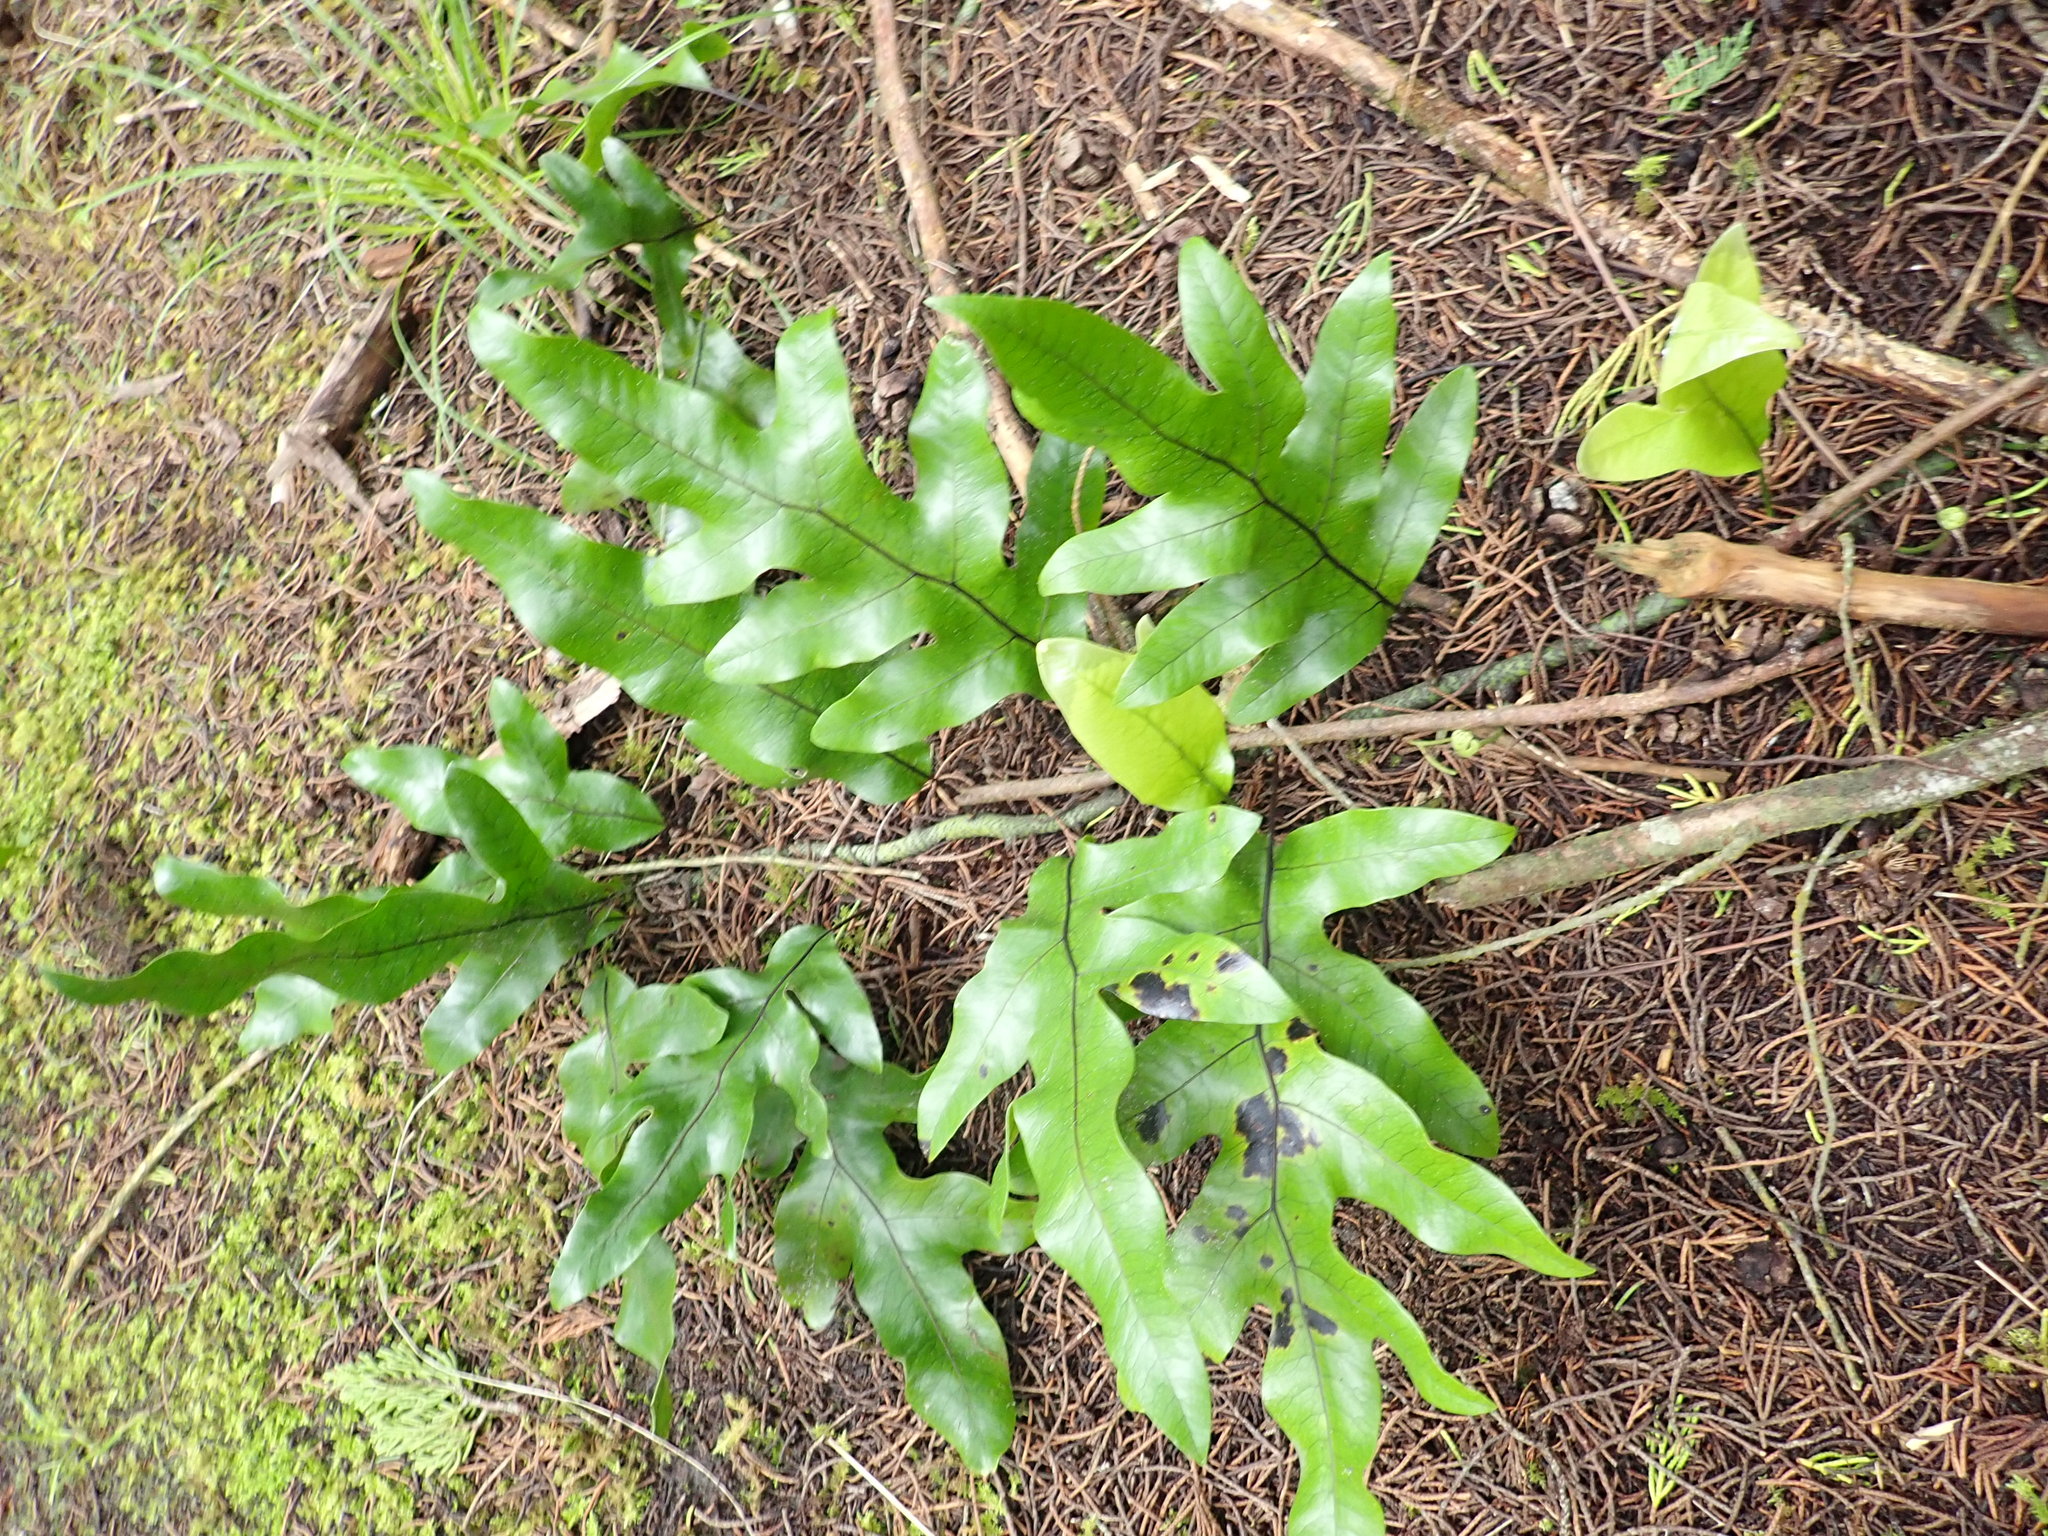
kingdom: Plantae
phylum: Tracheophyta
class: Polypodiopsida
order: Polypodiales
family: Polypodiaceae
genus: Lecanopteris
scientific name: Lecanopteris pustulata
